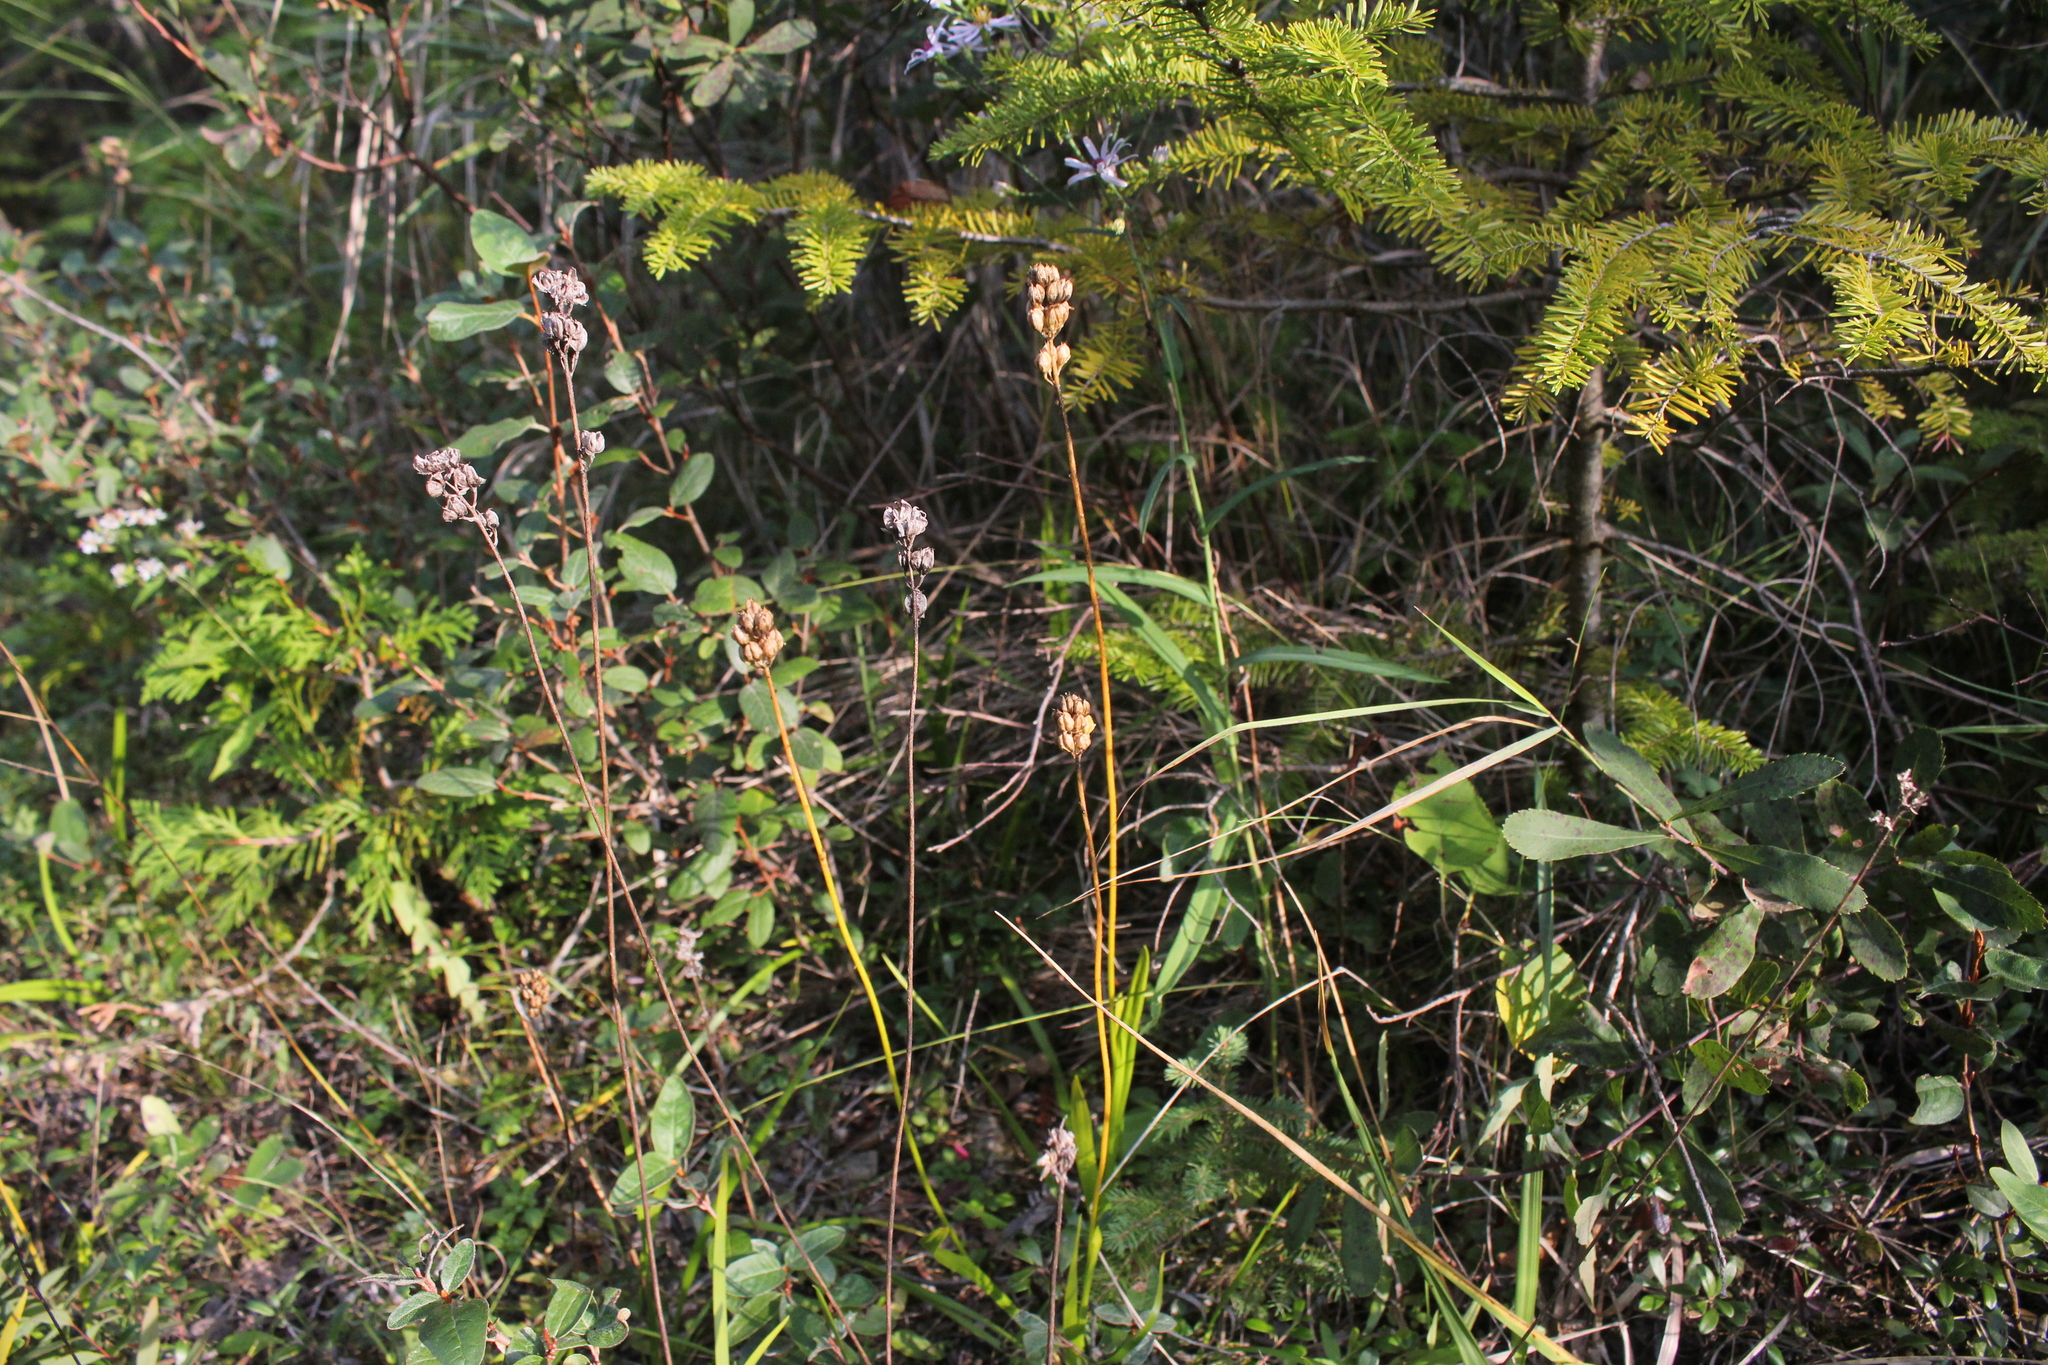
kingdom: Plantae
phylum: Tracheophyta
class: Liliopsida
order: Alismatales
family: Tofieldiaceae
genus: Triantha
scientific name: Triantha glutinosa
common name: Glutinous tofieldia
